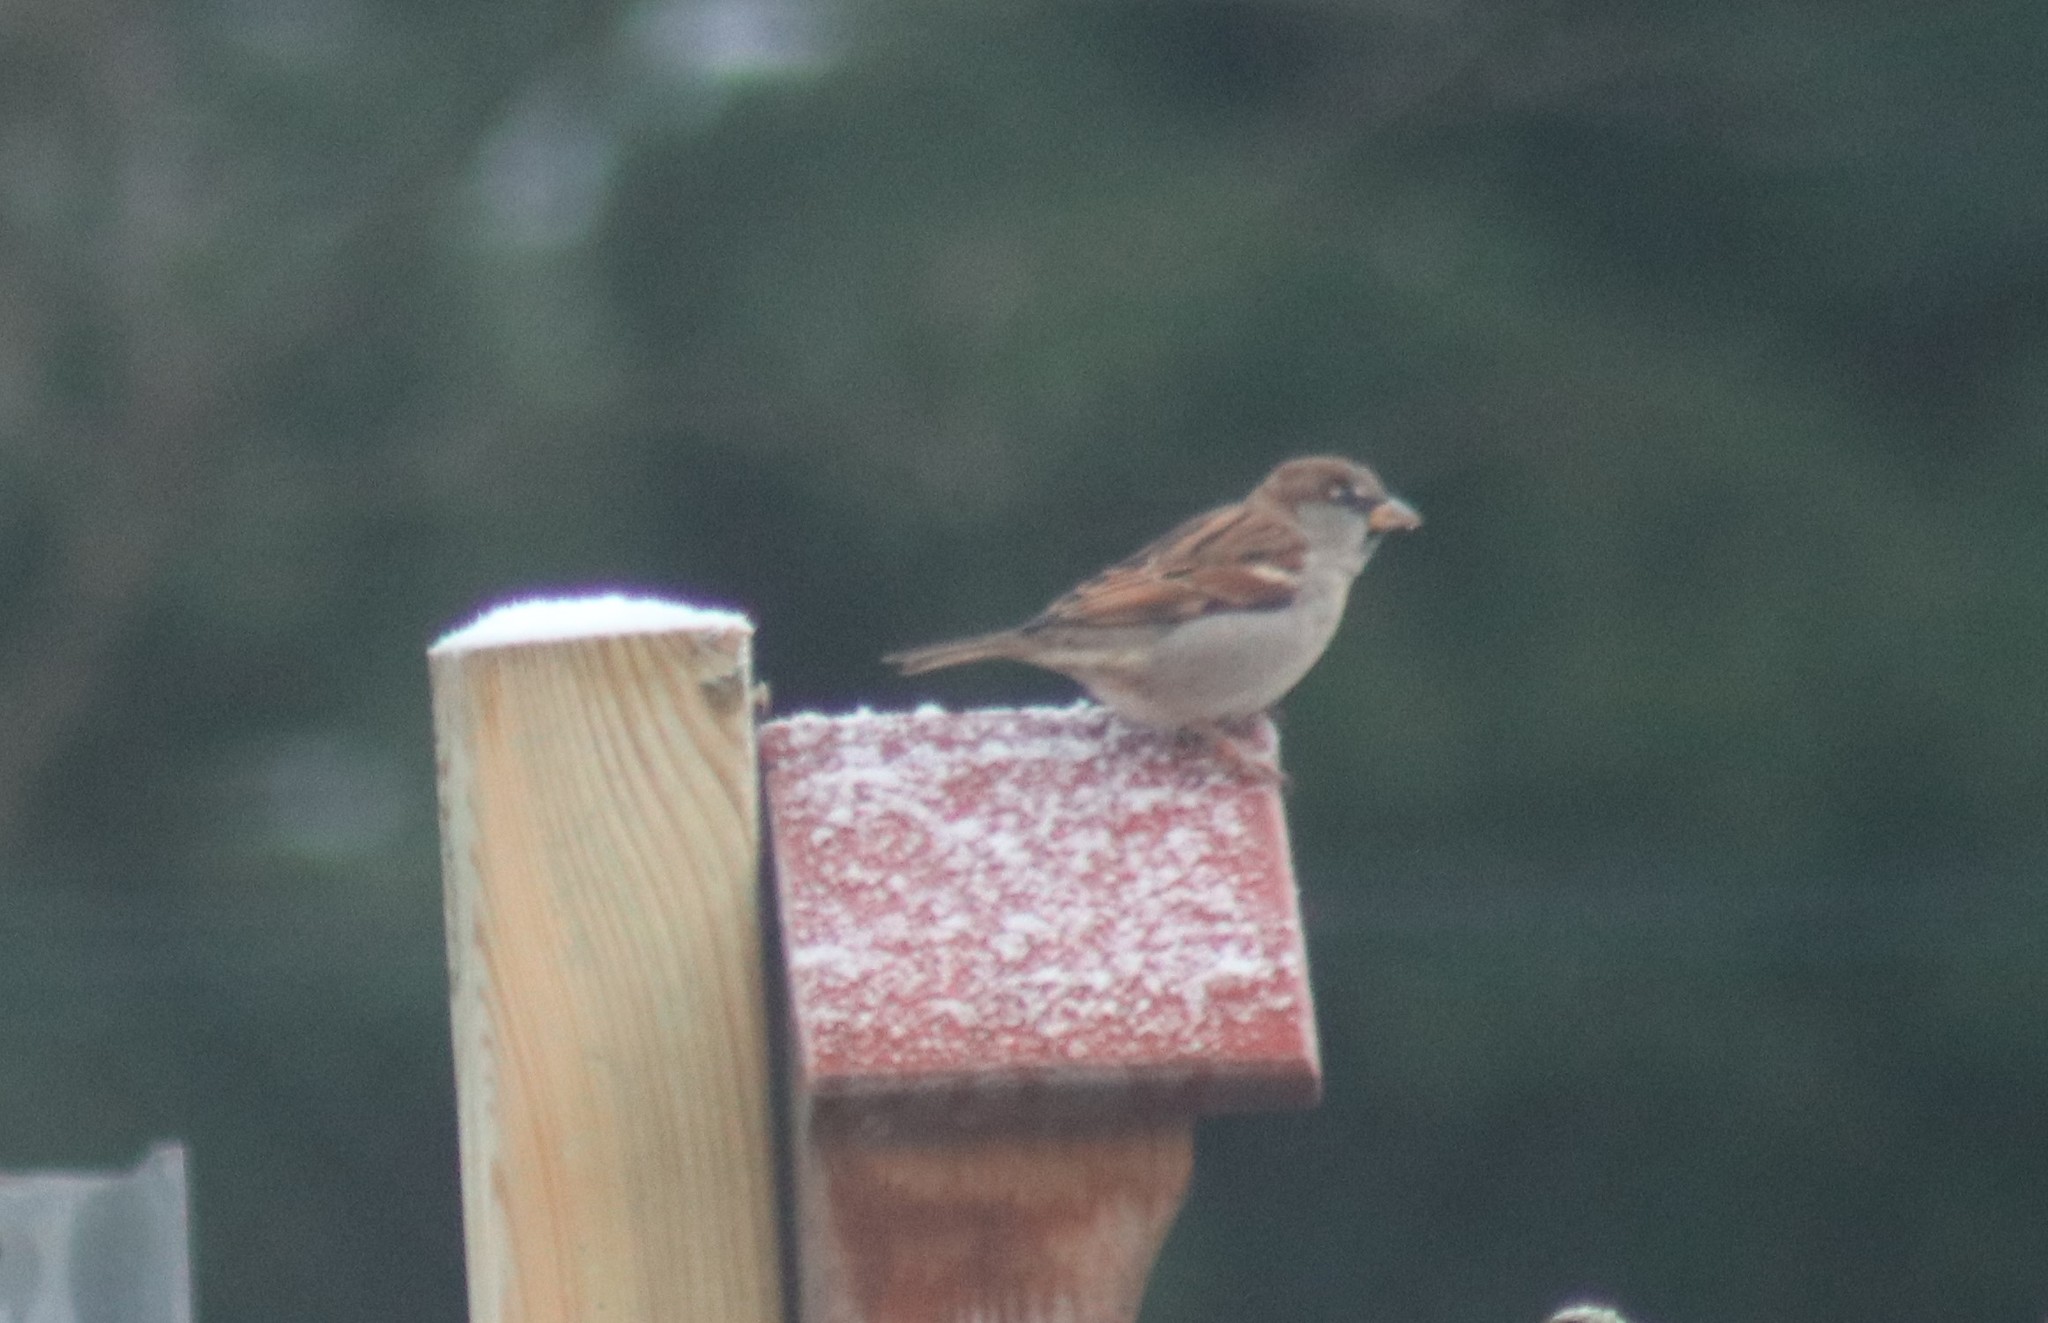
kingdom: Animalia
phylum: Chordata
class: Aves
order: Passeriformes
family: Passeridae
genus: Passer
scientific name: Passer domesticus
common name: House sparrow
